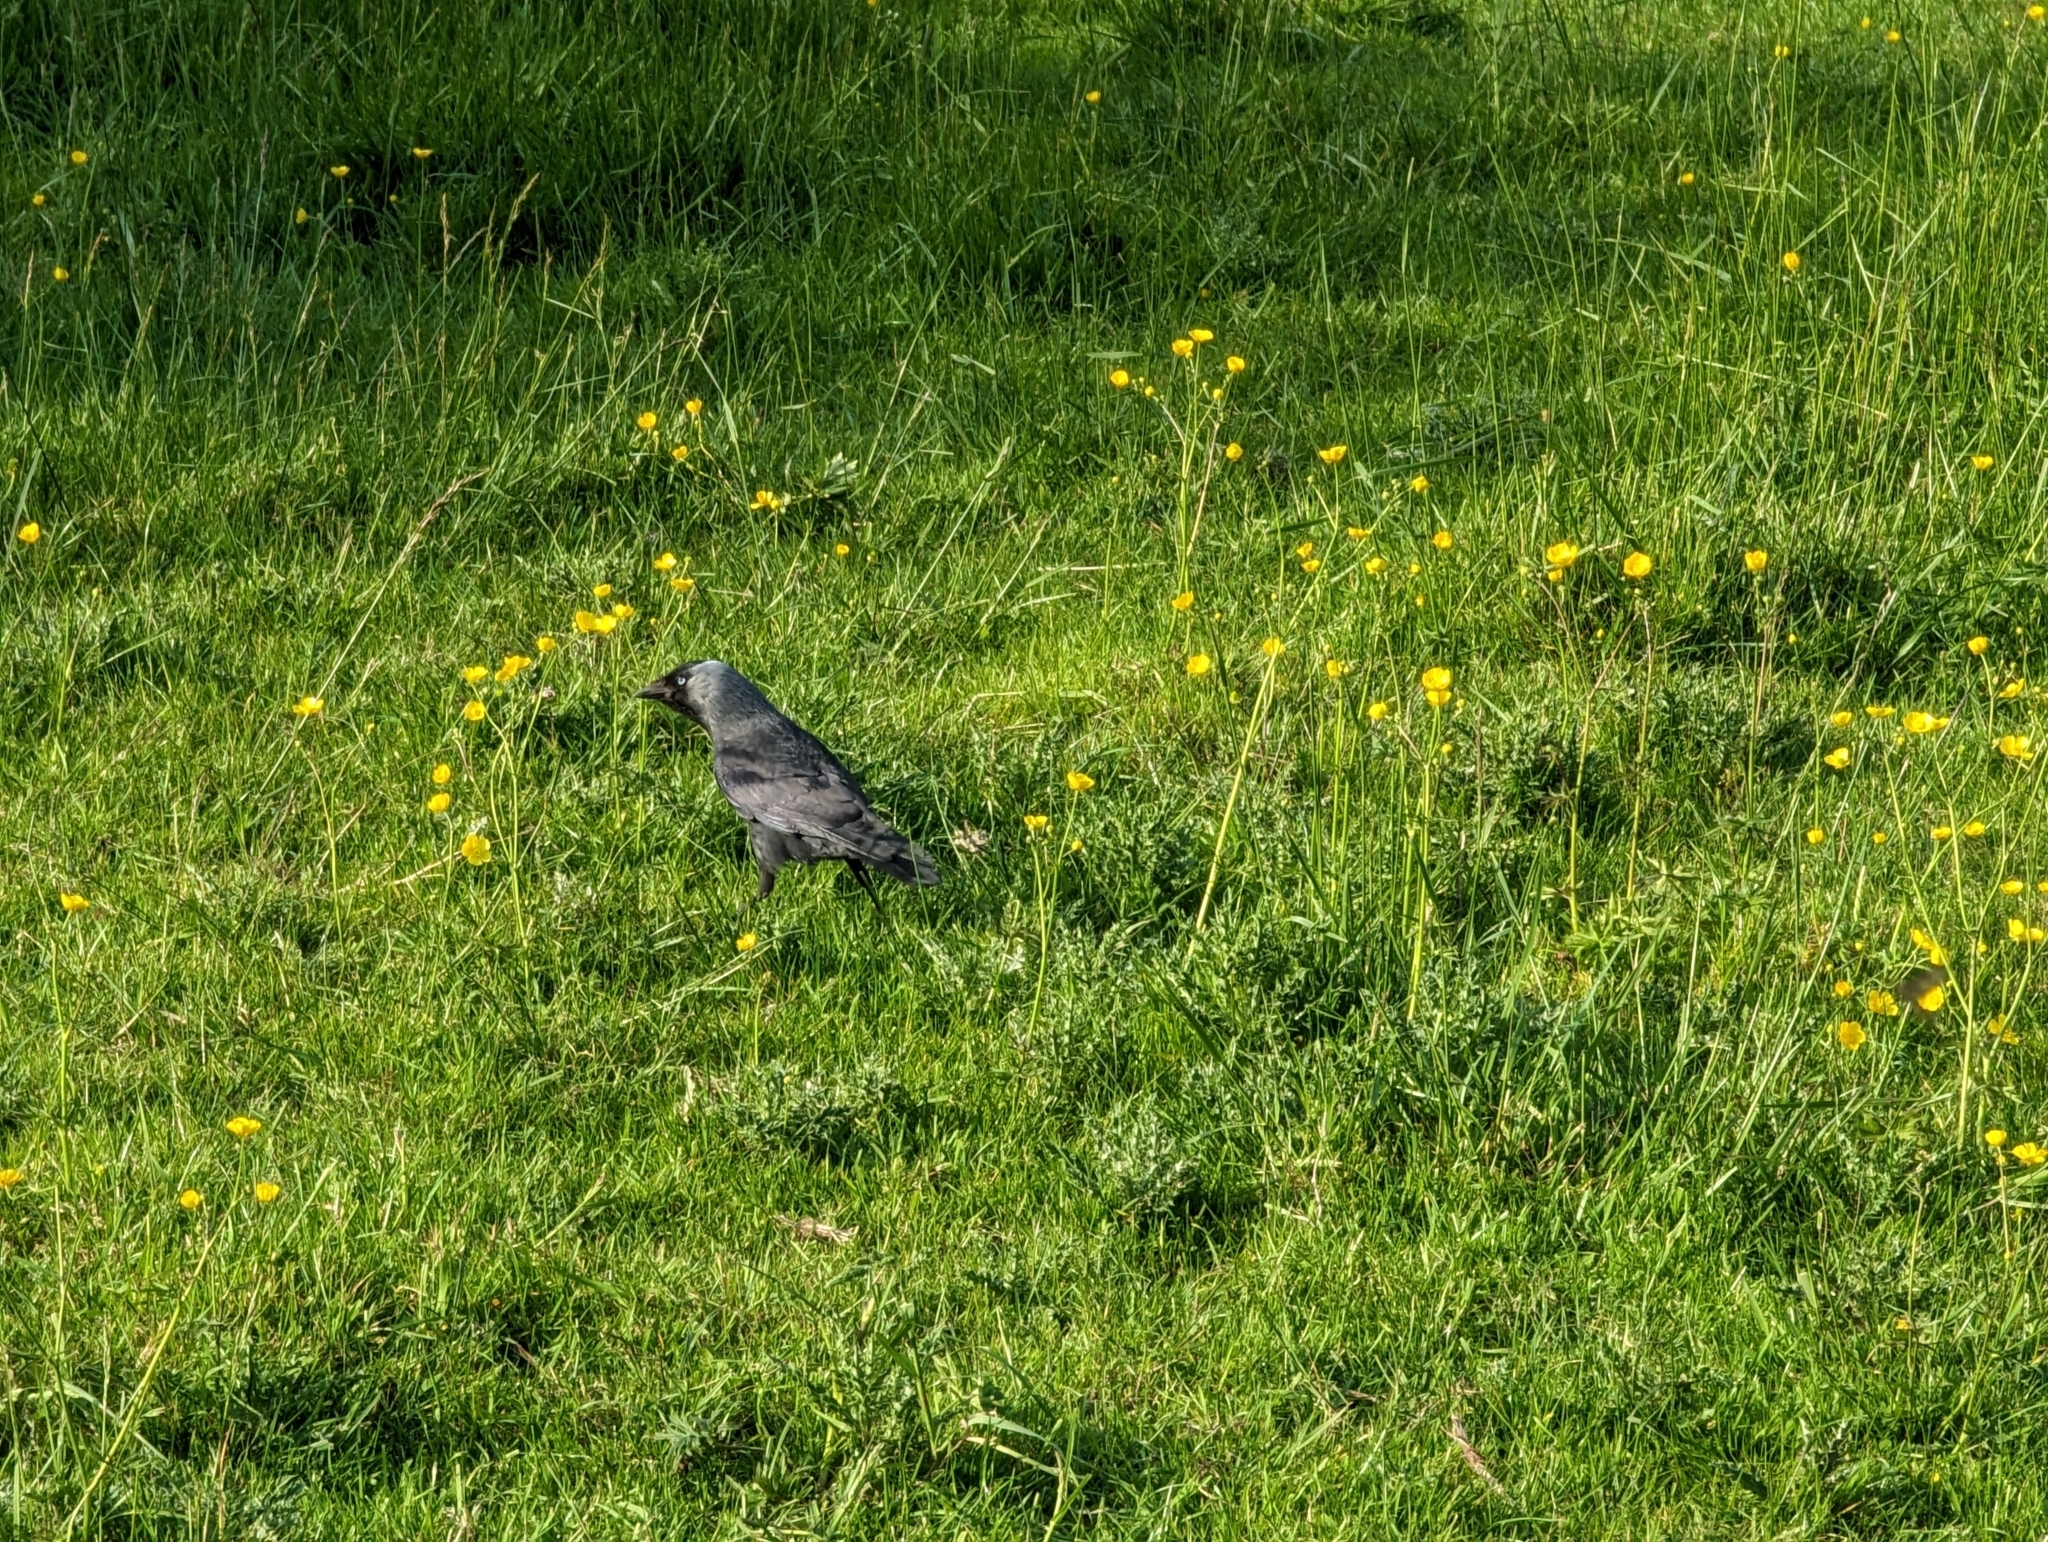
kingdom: Animalia
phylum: Chordata
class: Aves
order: Passeriformes
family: Corvidae
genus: Coloeus
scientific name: Coloeus monedula
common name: Western jackdaw
